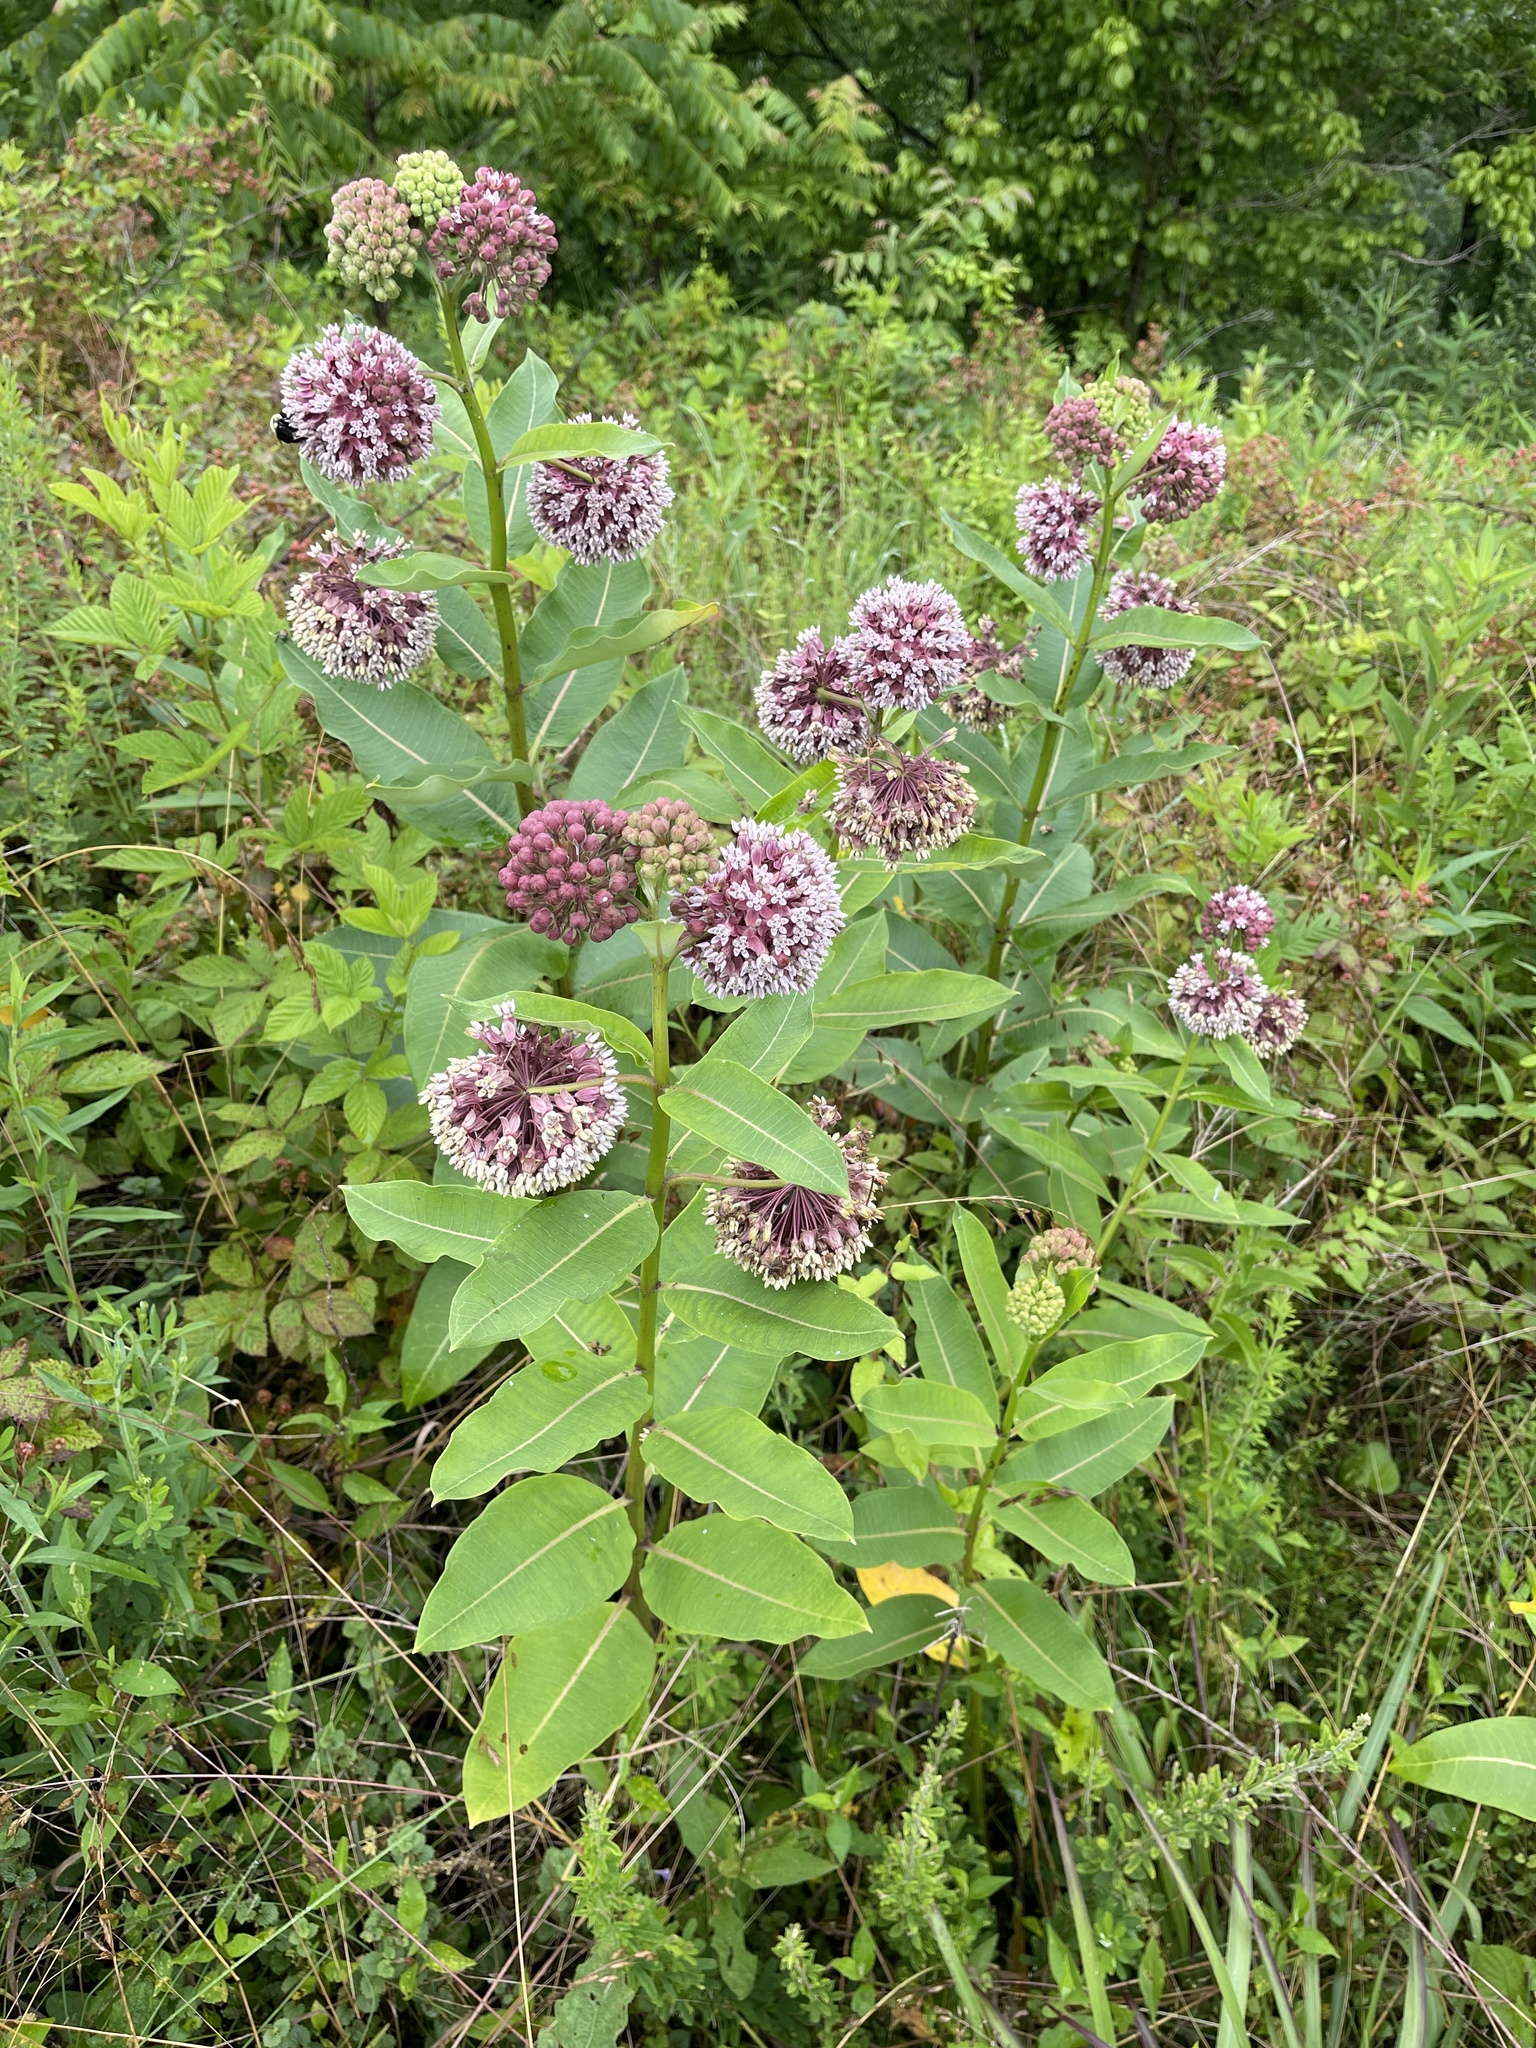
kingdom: Plantae
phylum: Tracheophyta
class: Magnoliopsida
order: Gentianales
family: Apocynaceae
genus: Asclepias
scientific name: Asclepias syriaca
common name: Common milkweed
